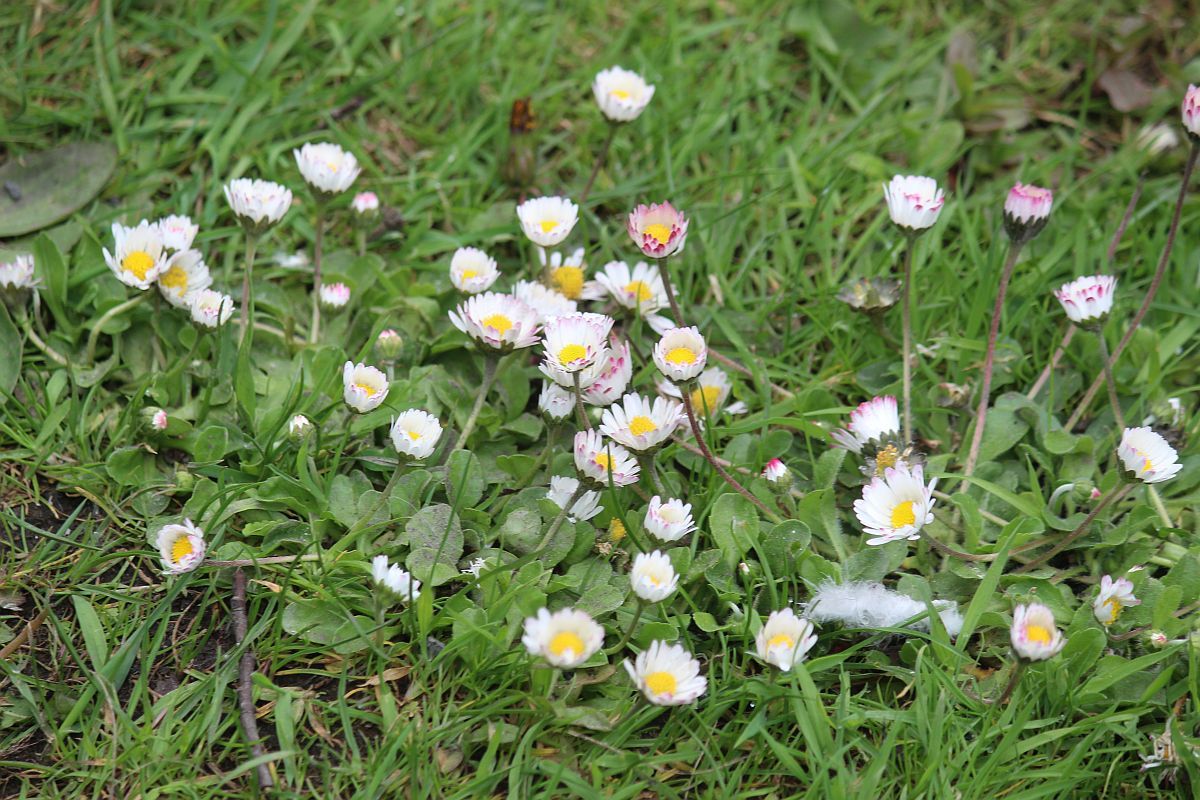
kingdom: Plantae
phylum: Tracheophyta
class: Magnoliopsida
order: Asterales
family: Asteraceae
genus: Bellis
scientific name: Bellis perennis
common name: Lawndaisy
